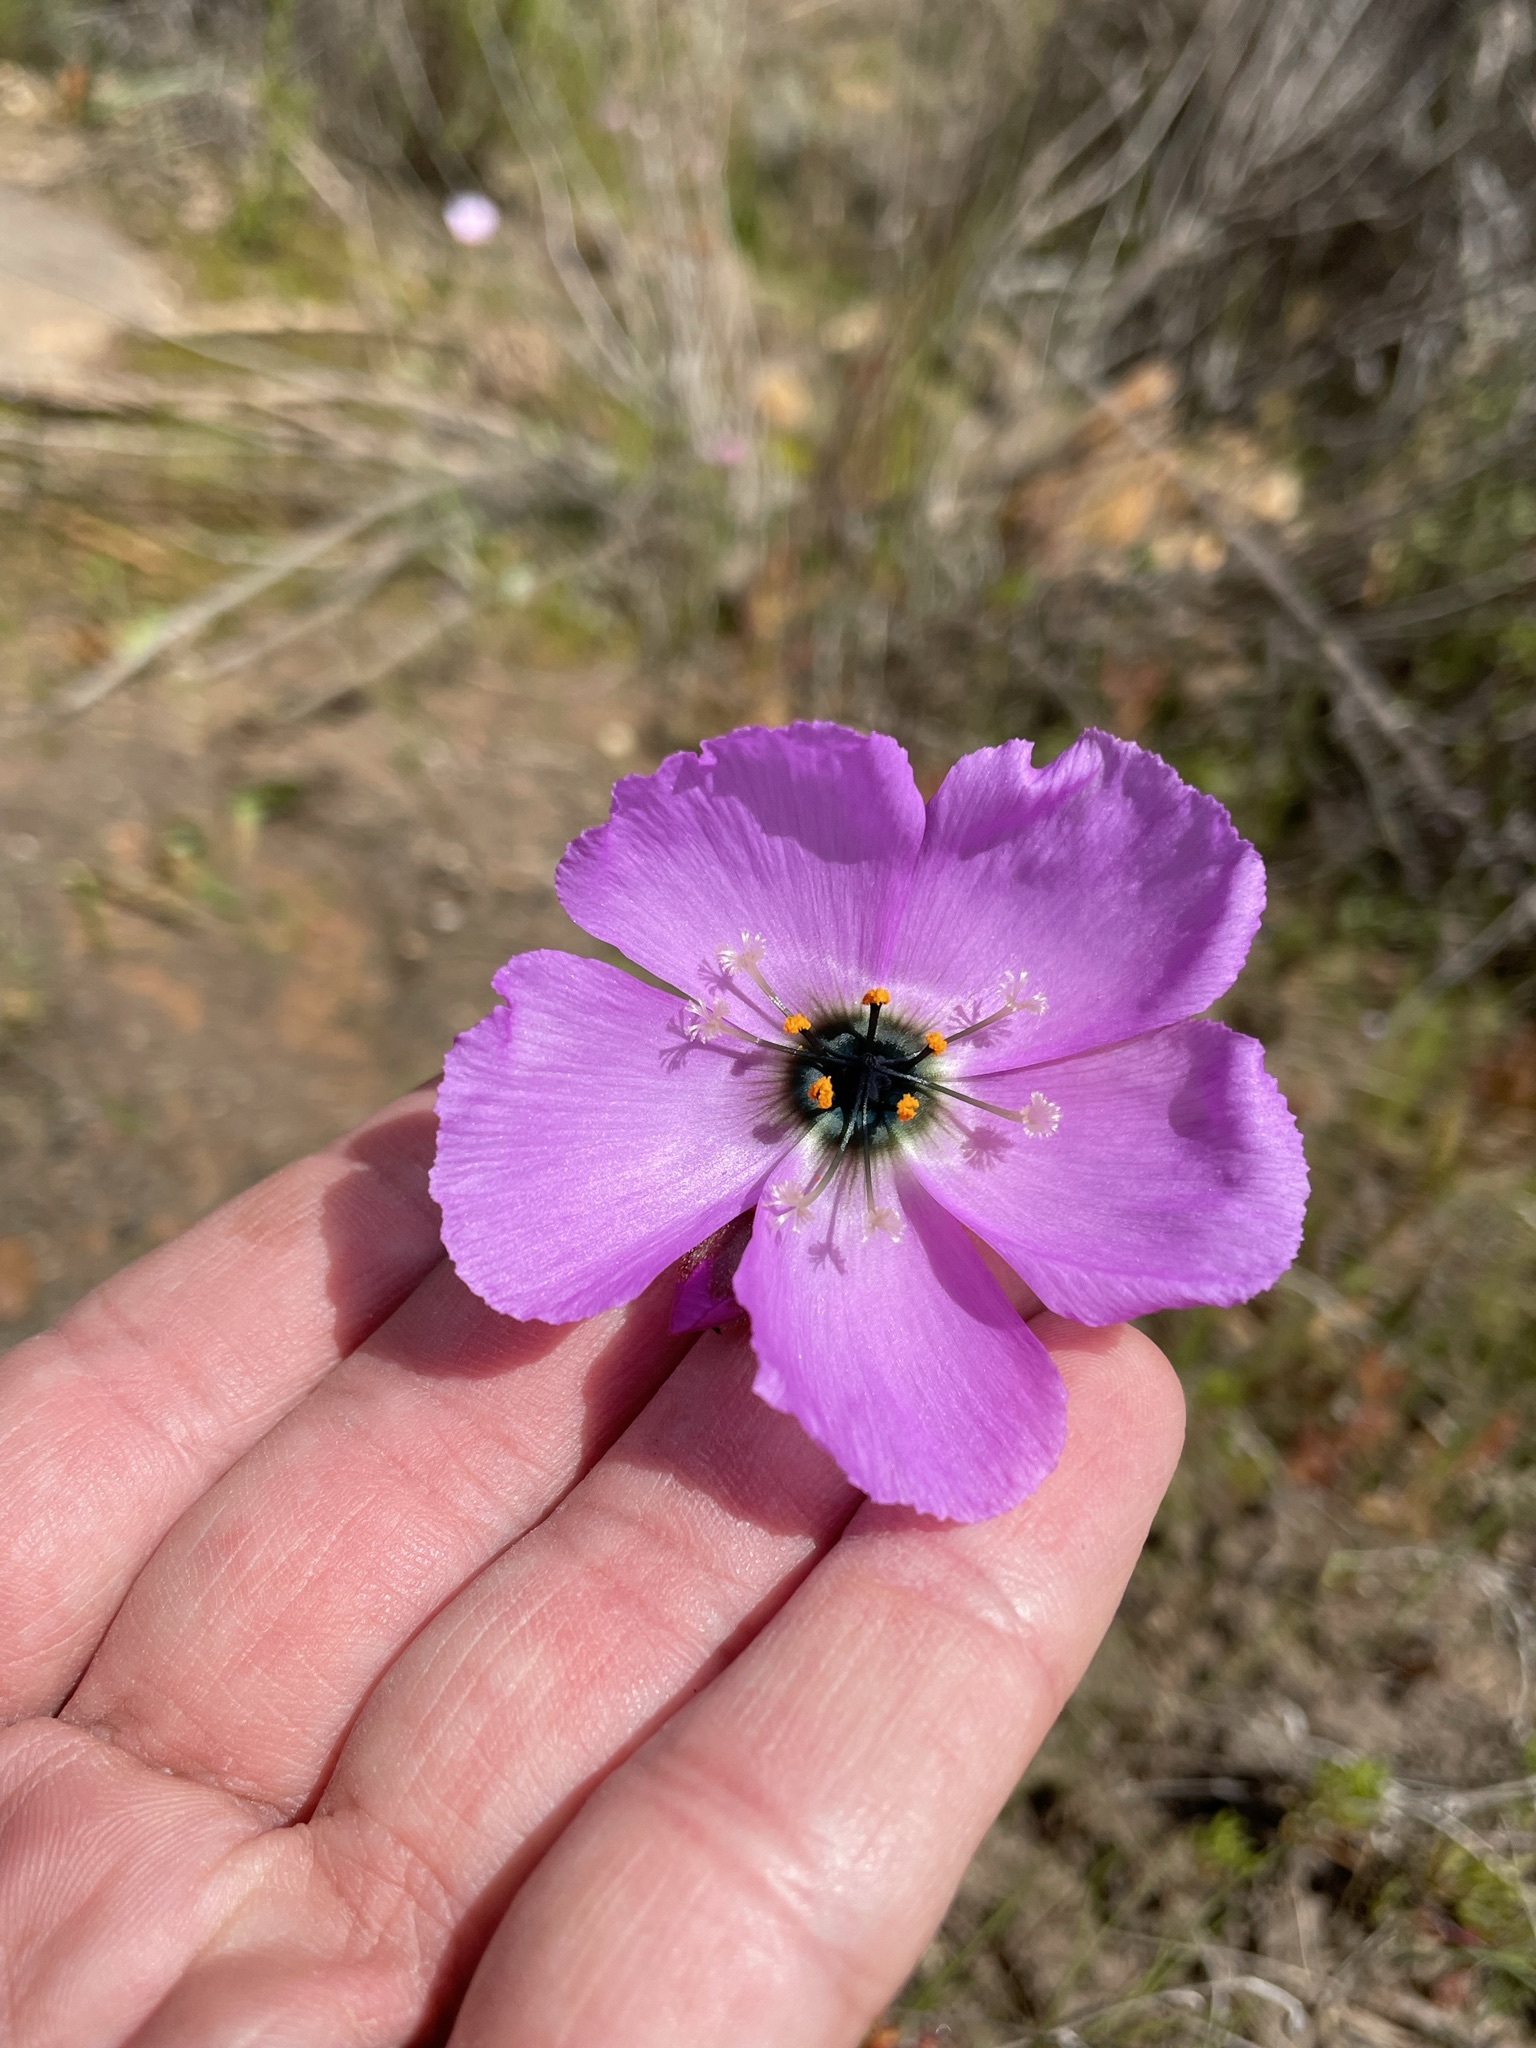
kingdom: Plantae
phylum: Tracheophyta
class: Magnoliopsida
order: Caryophyllales
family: Droseraceae
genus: Drosera
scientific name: Drosera cistiflora
